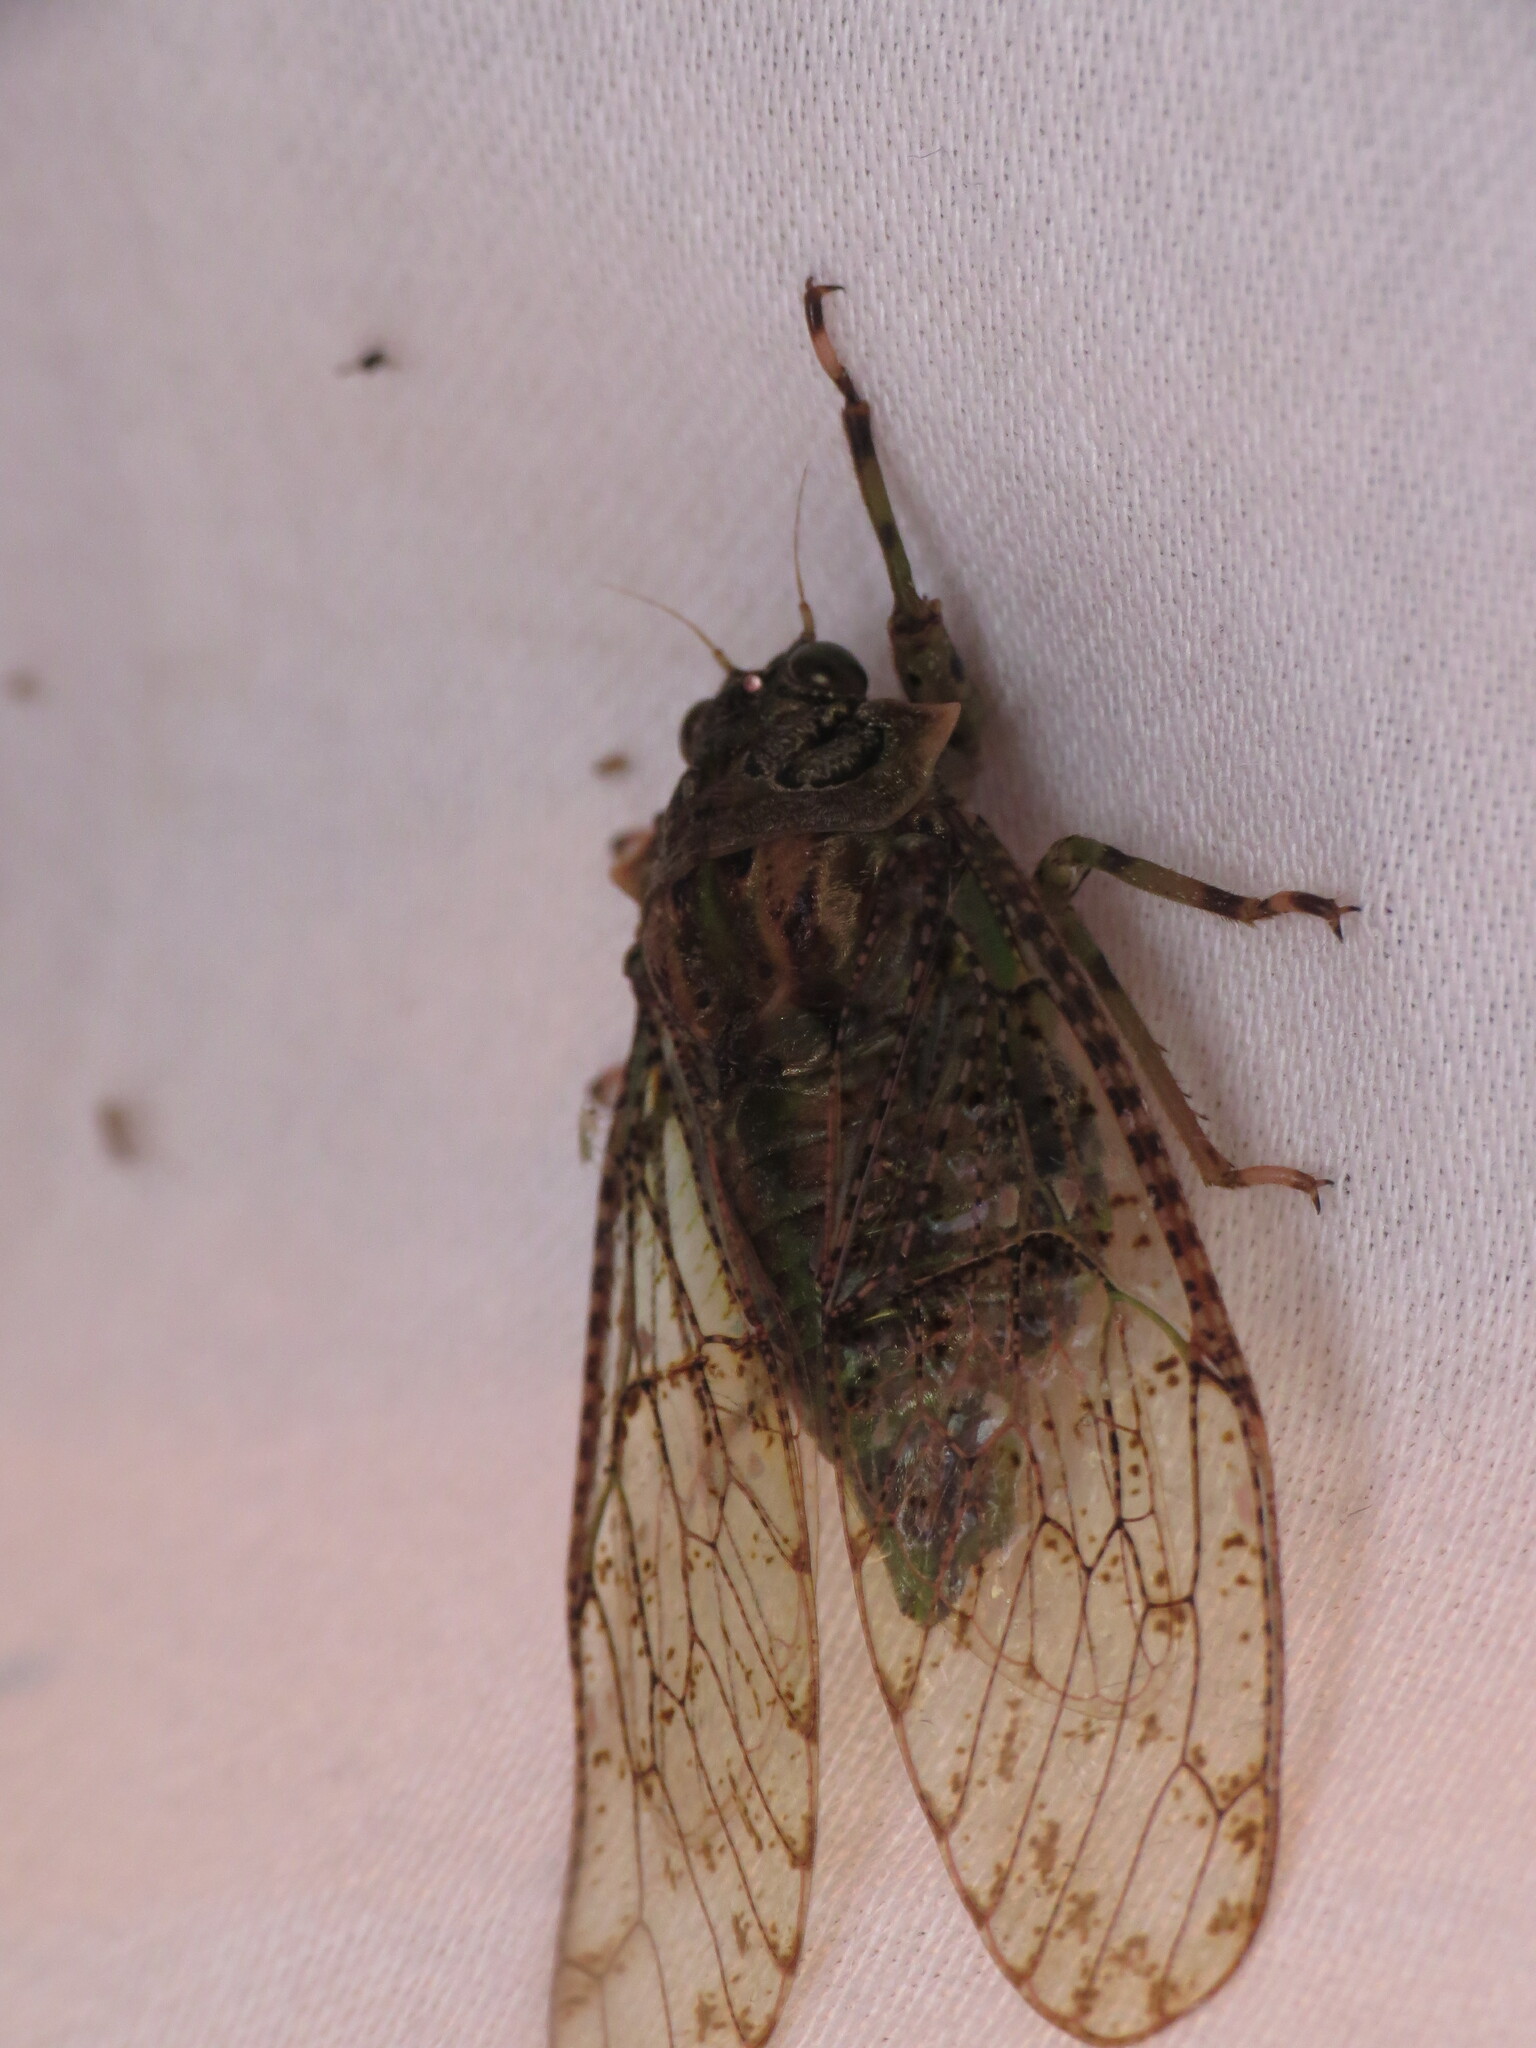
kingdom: Animalia
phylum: Arthropoda
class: Insecta
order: Hemiptera
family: Cicadidae
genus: Borencona
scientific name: Borencona aguadilla
